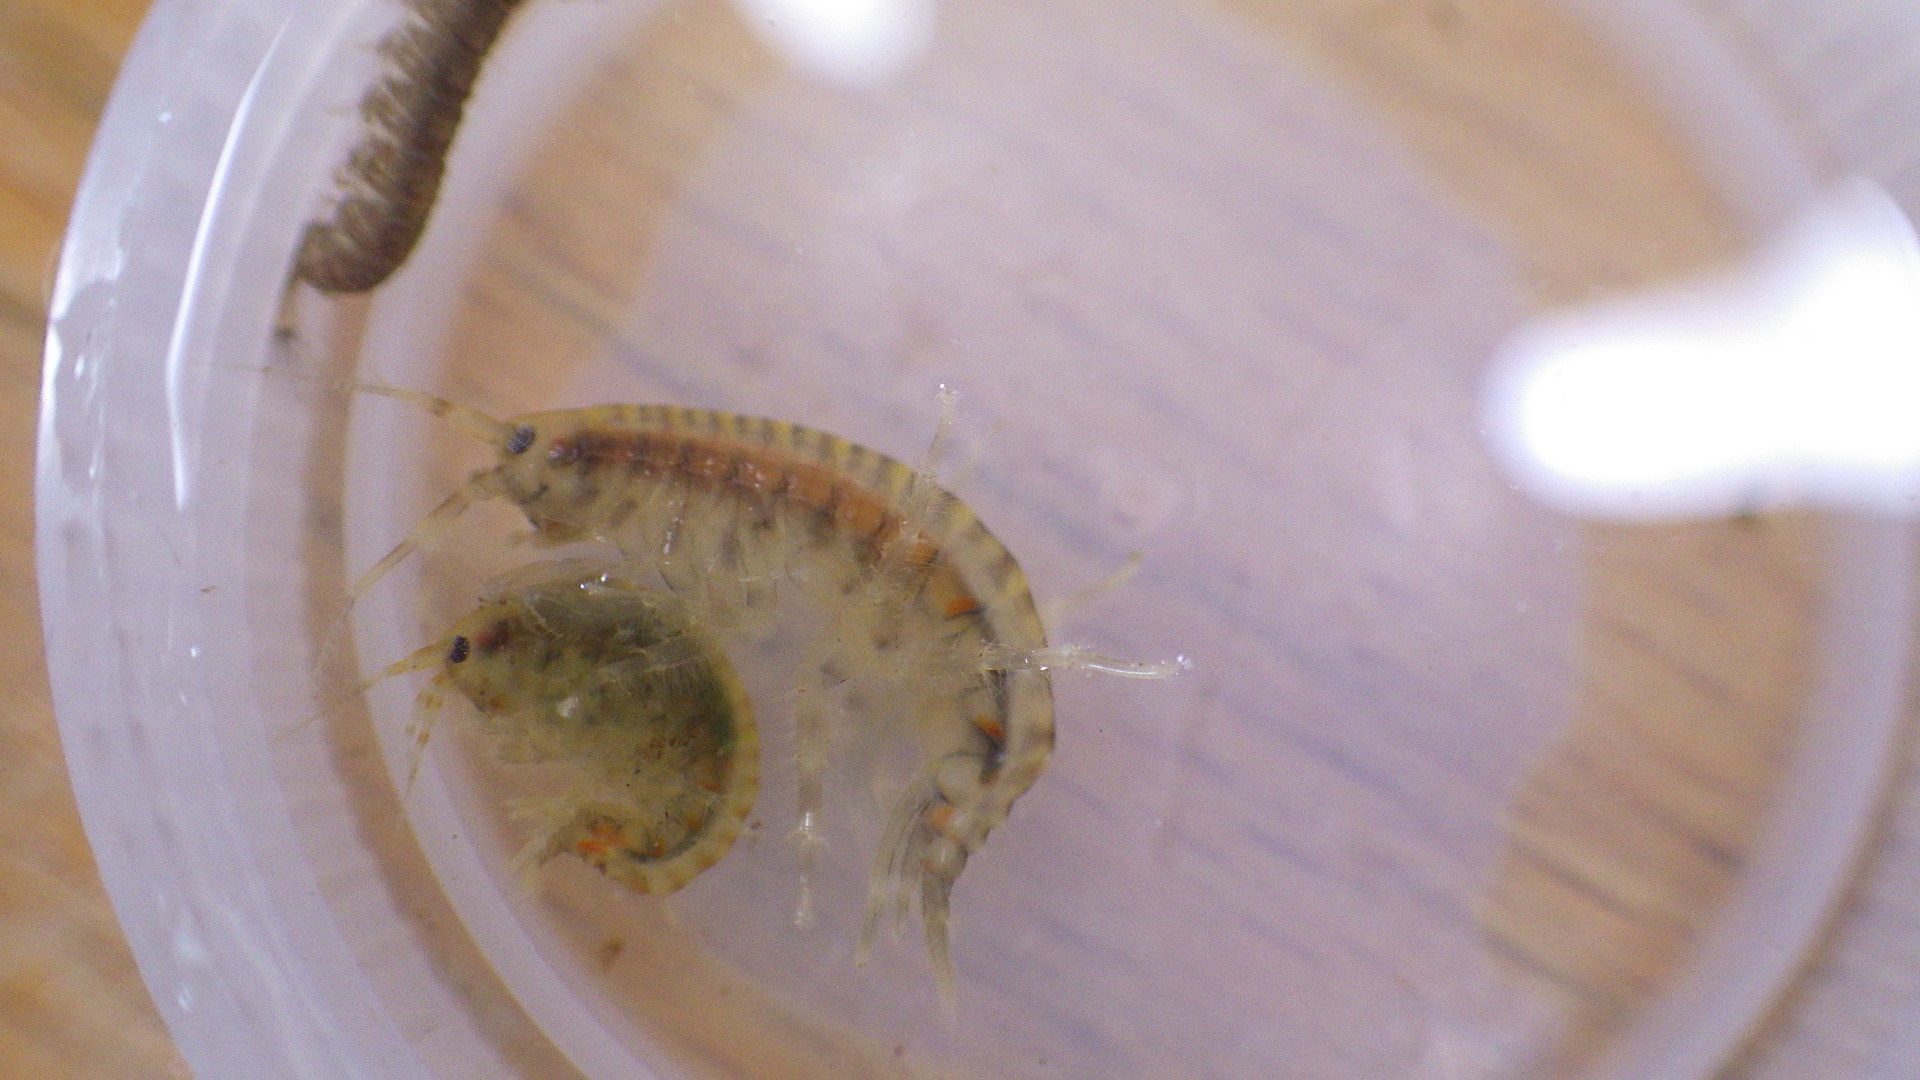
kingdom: Animalia
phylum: Arthropoda
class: Malacostraca
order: Amphipoda
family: Gammaridae
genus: Gammarus
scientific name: Gammarus fasciatus
